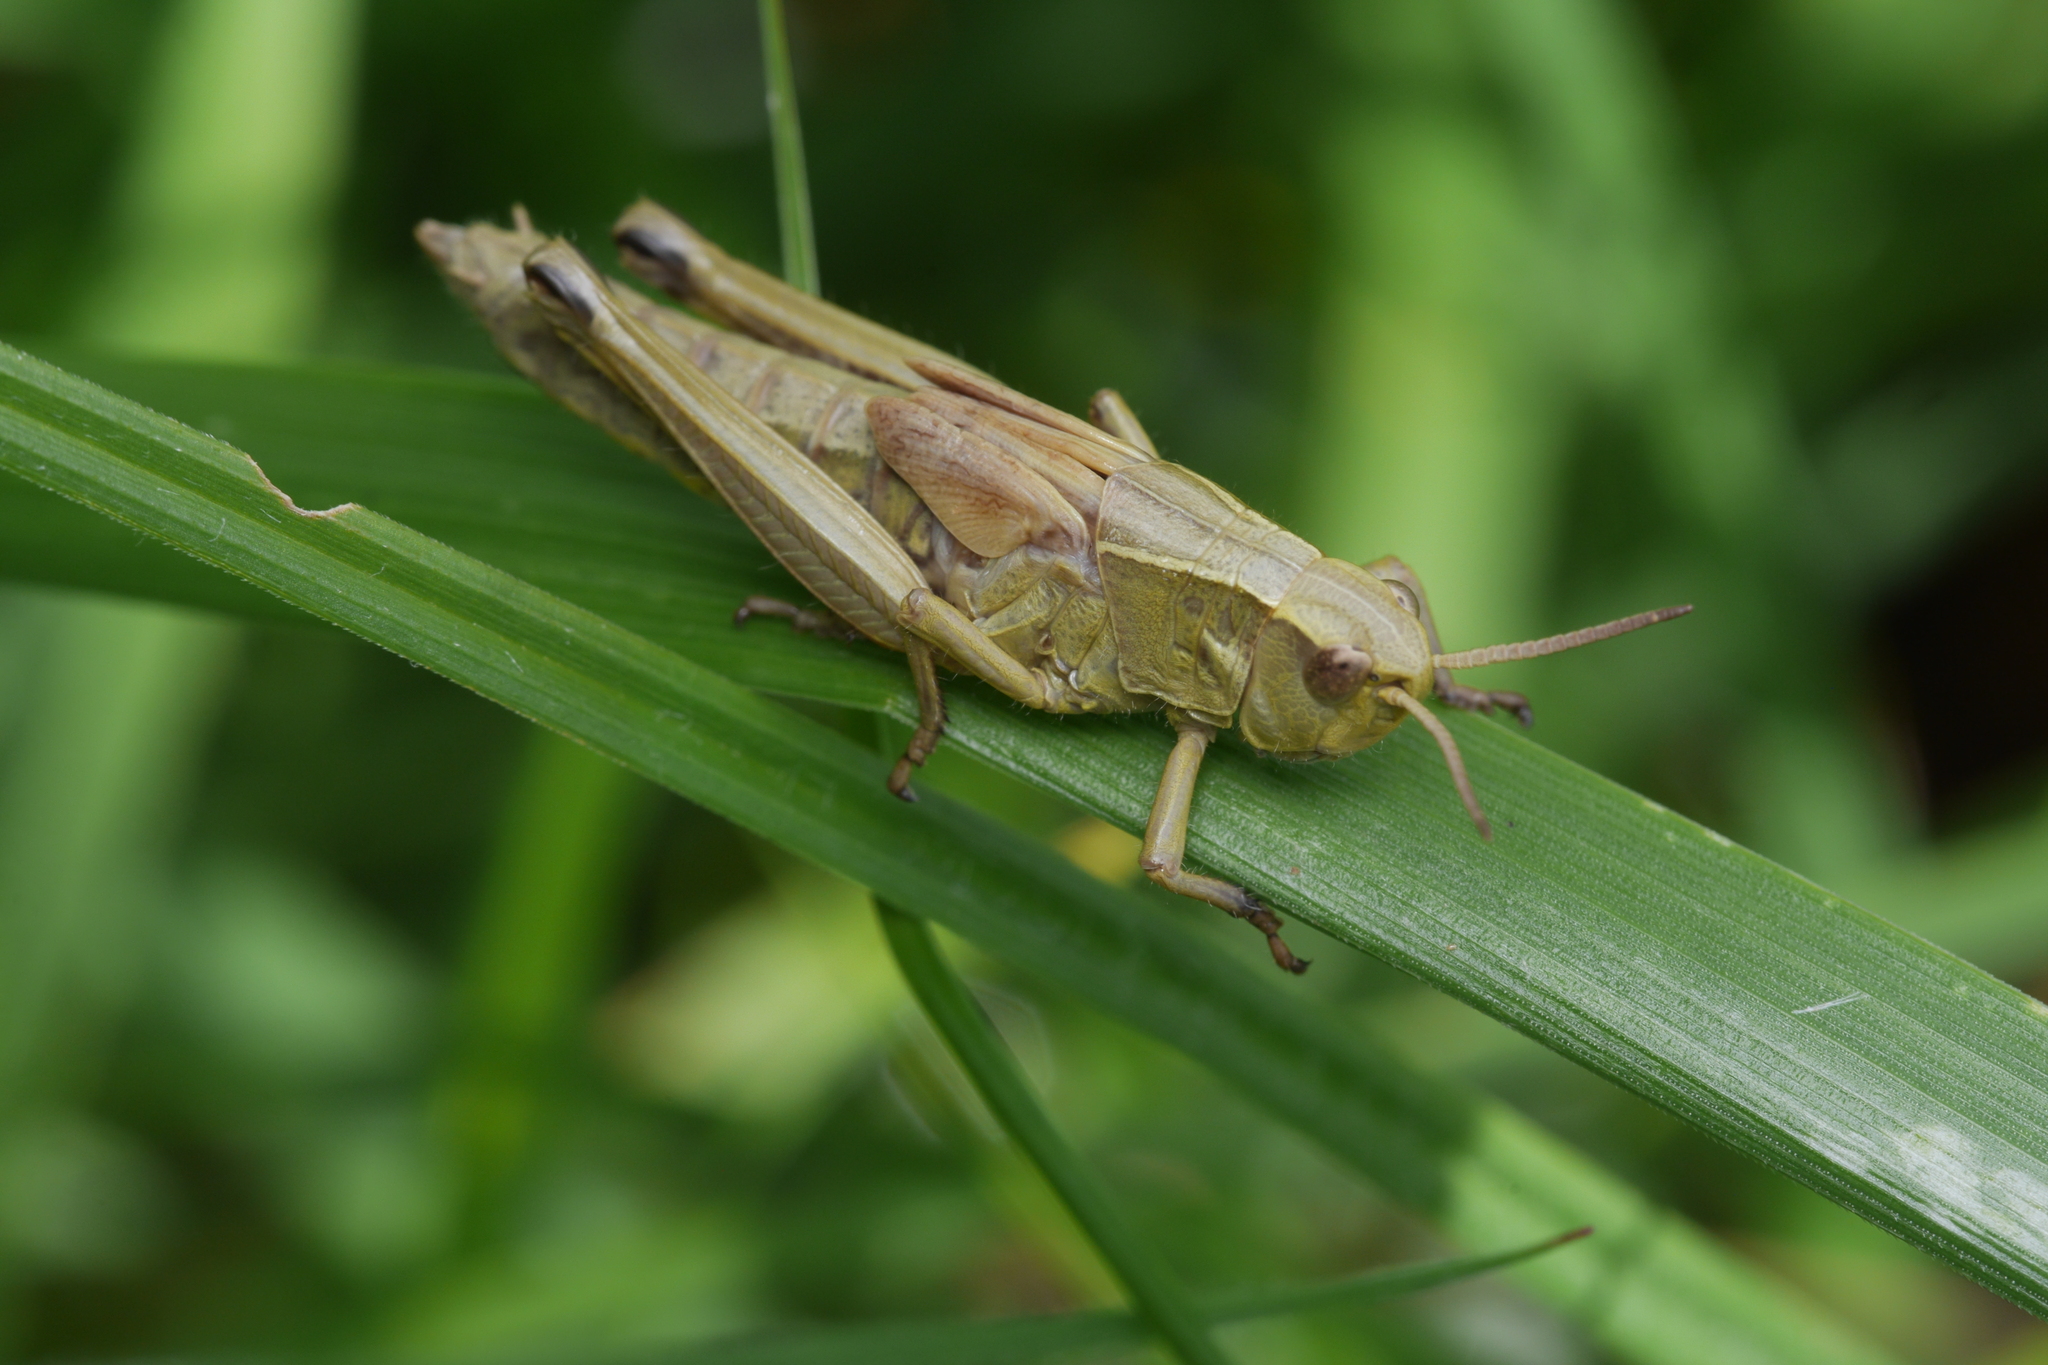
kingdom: Animalia
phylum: Arthropoda
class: Insecta
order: Orthoptera
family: Acrididae
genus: Stethophyma
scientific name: Stethophyma grossum
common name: Large marsh grasshopper
